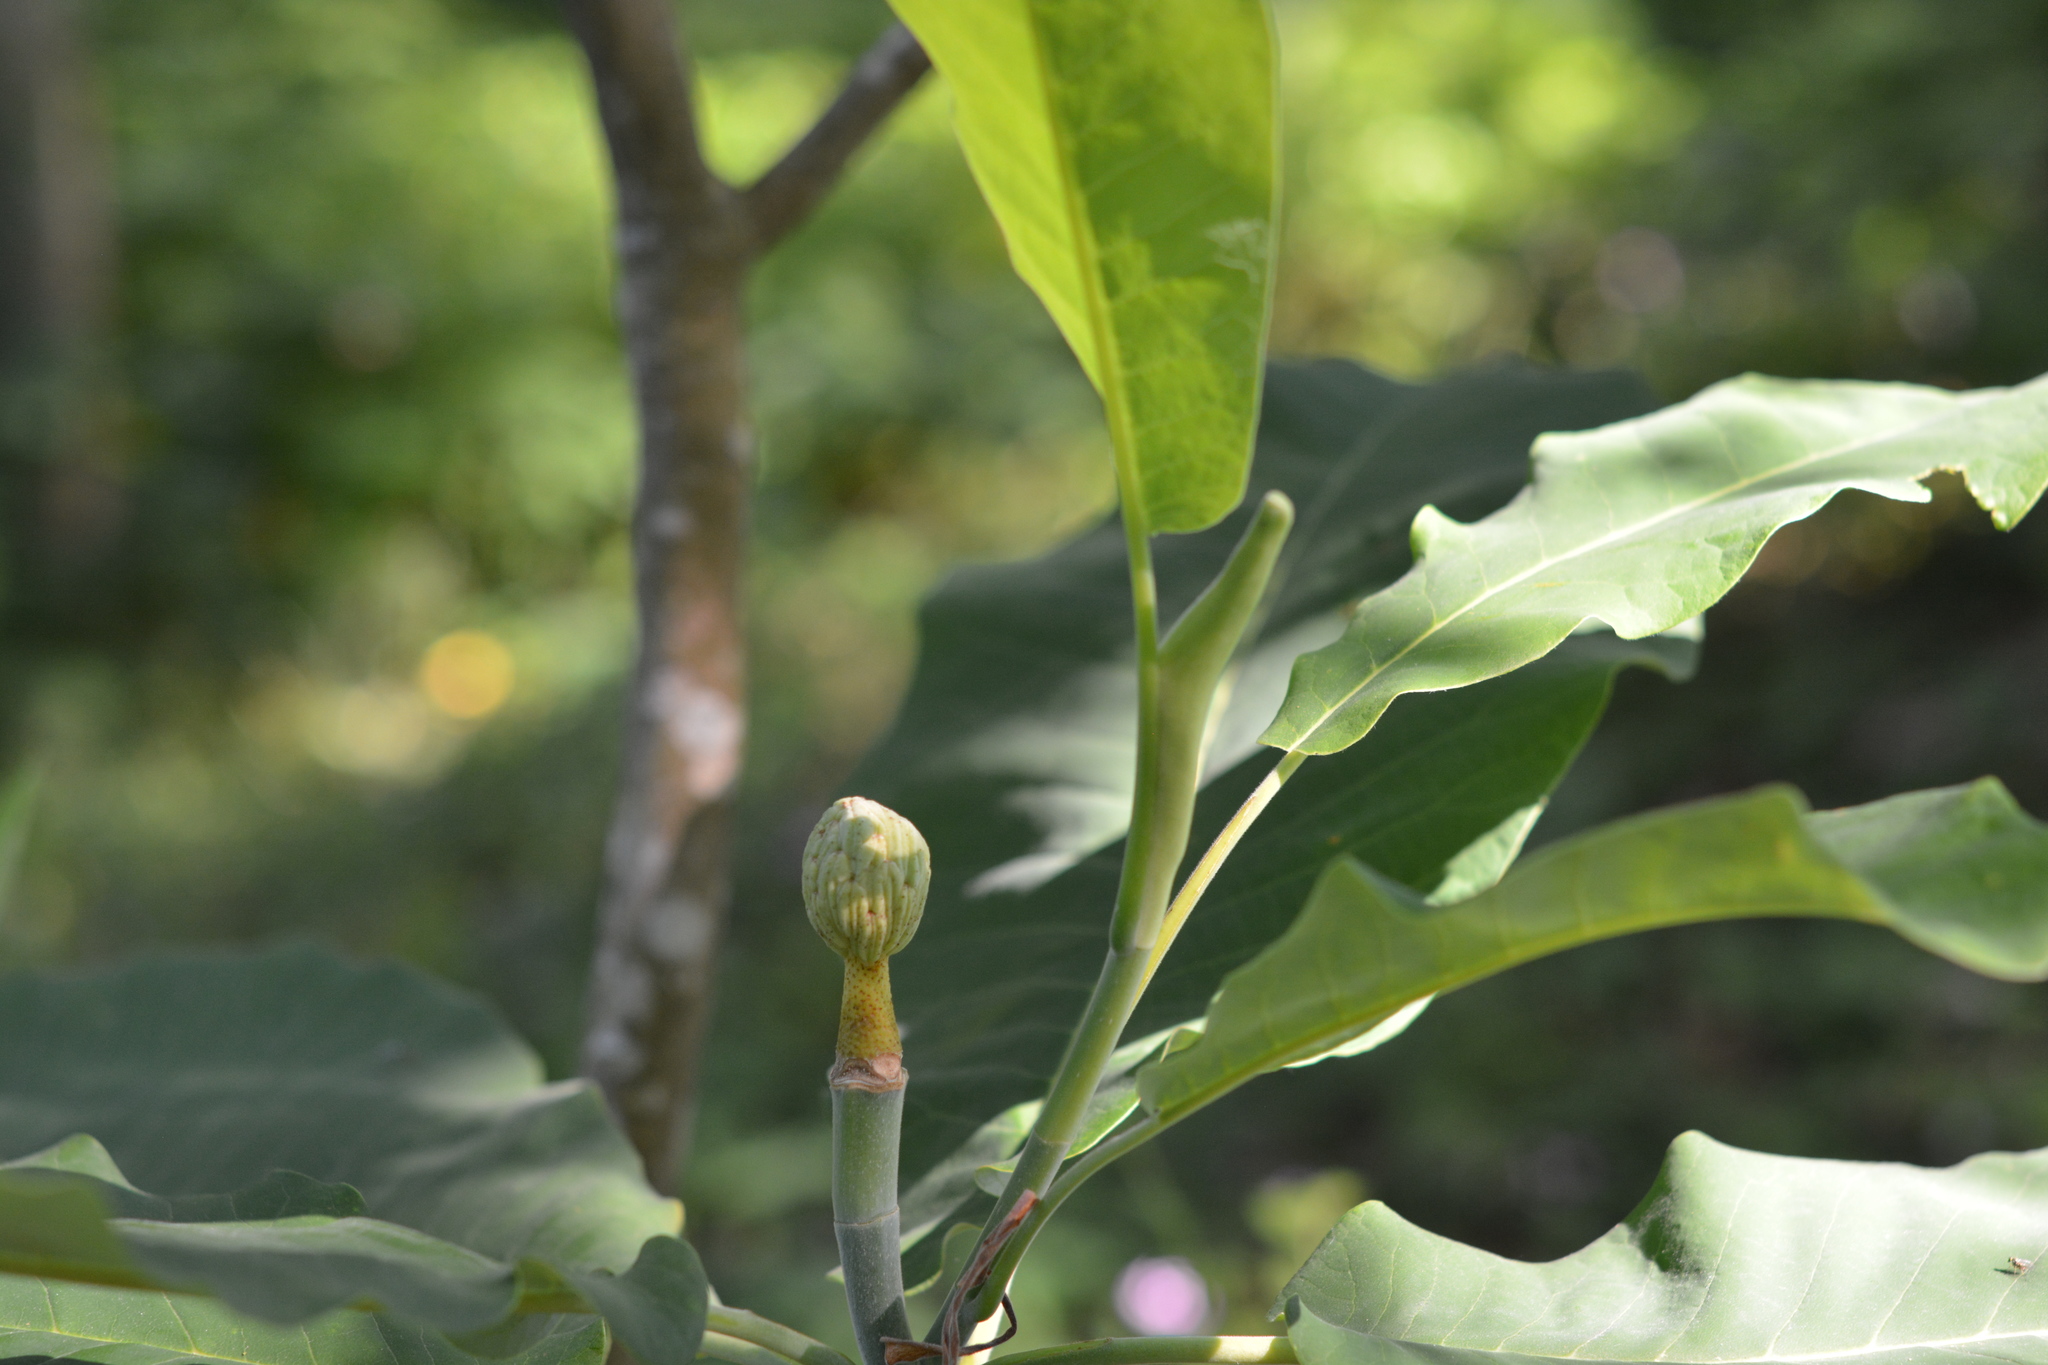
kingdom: Plantae
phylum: Tracheophyta
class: Magnoliopsida
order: Magnoliales
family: Magnoliaceae
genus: Magnolia
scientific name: Magnolia macrophylla
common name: Big-leaf magnolia
